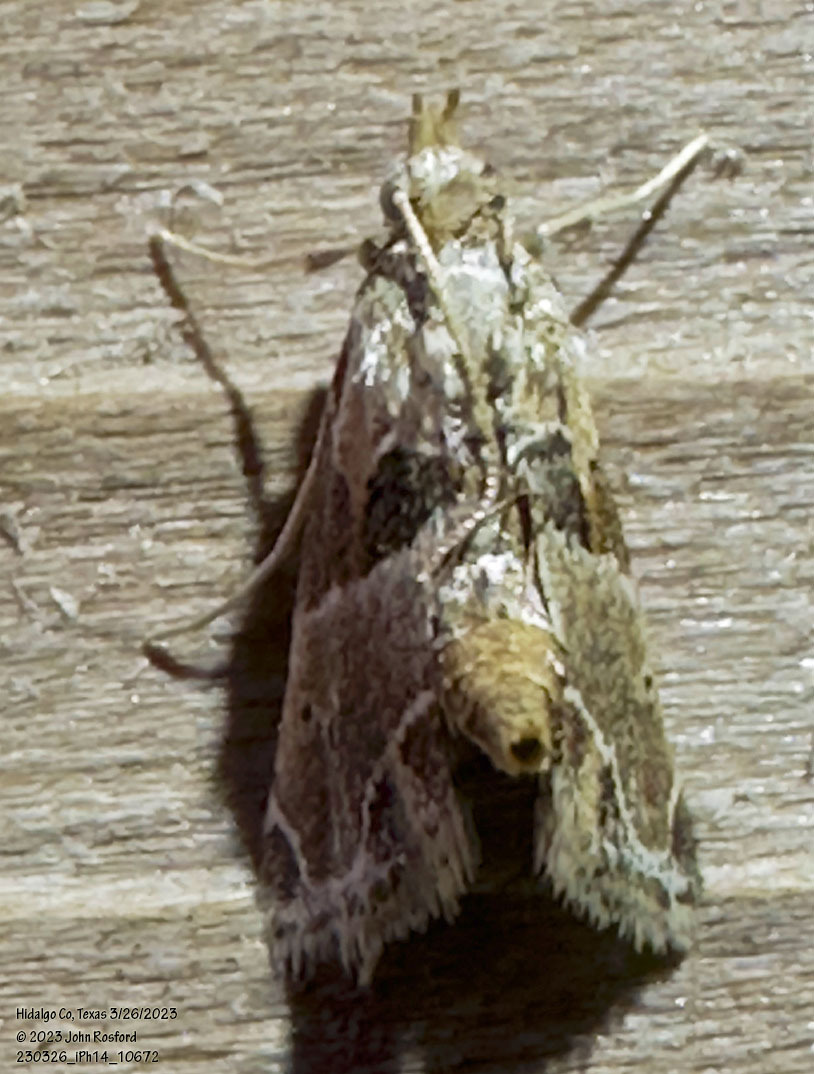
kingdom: Animalia
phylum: Arthropoda
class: Insecta
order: Lepidoptera
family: Pyralidae
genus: Neodavisia
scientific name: Neodavisia melusina
